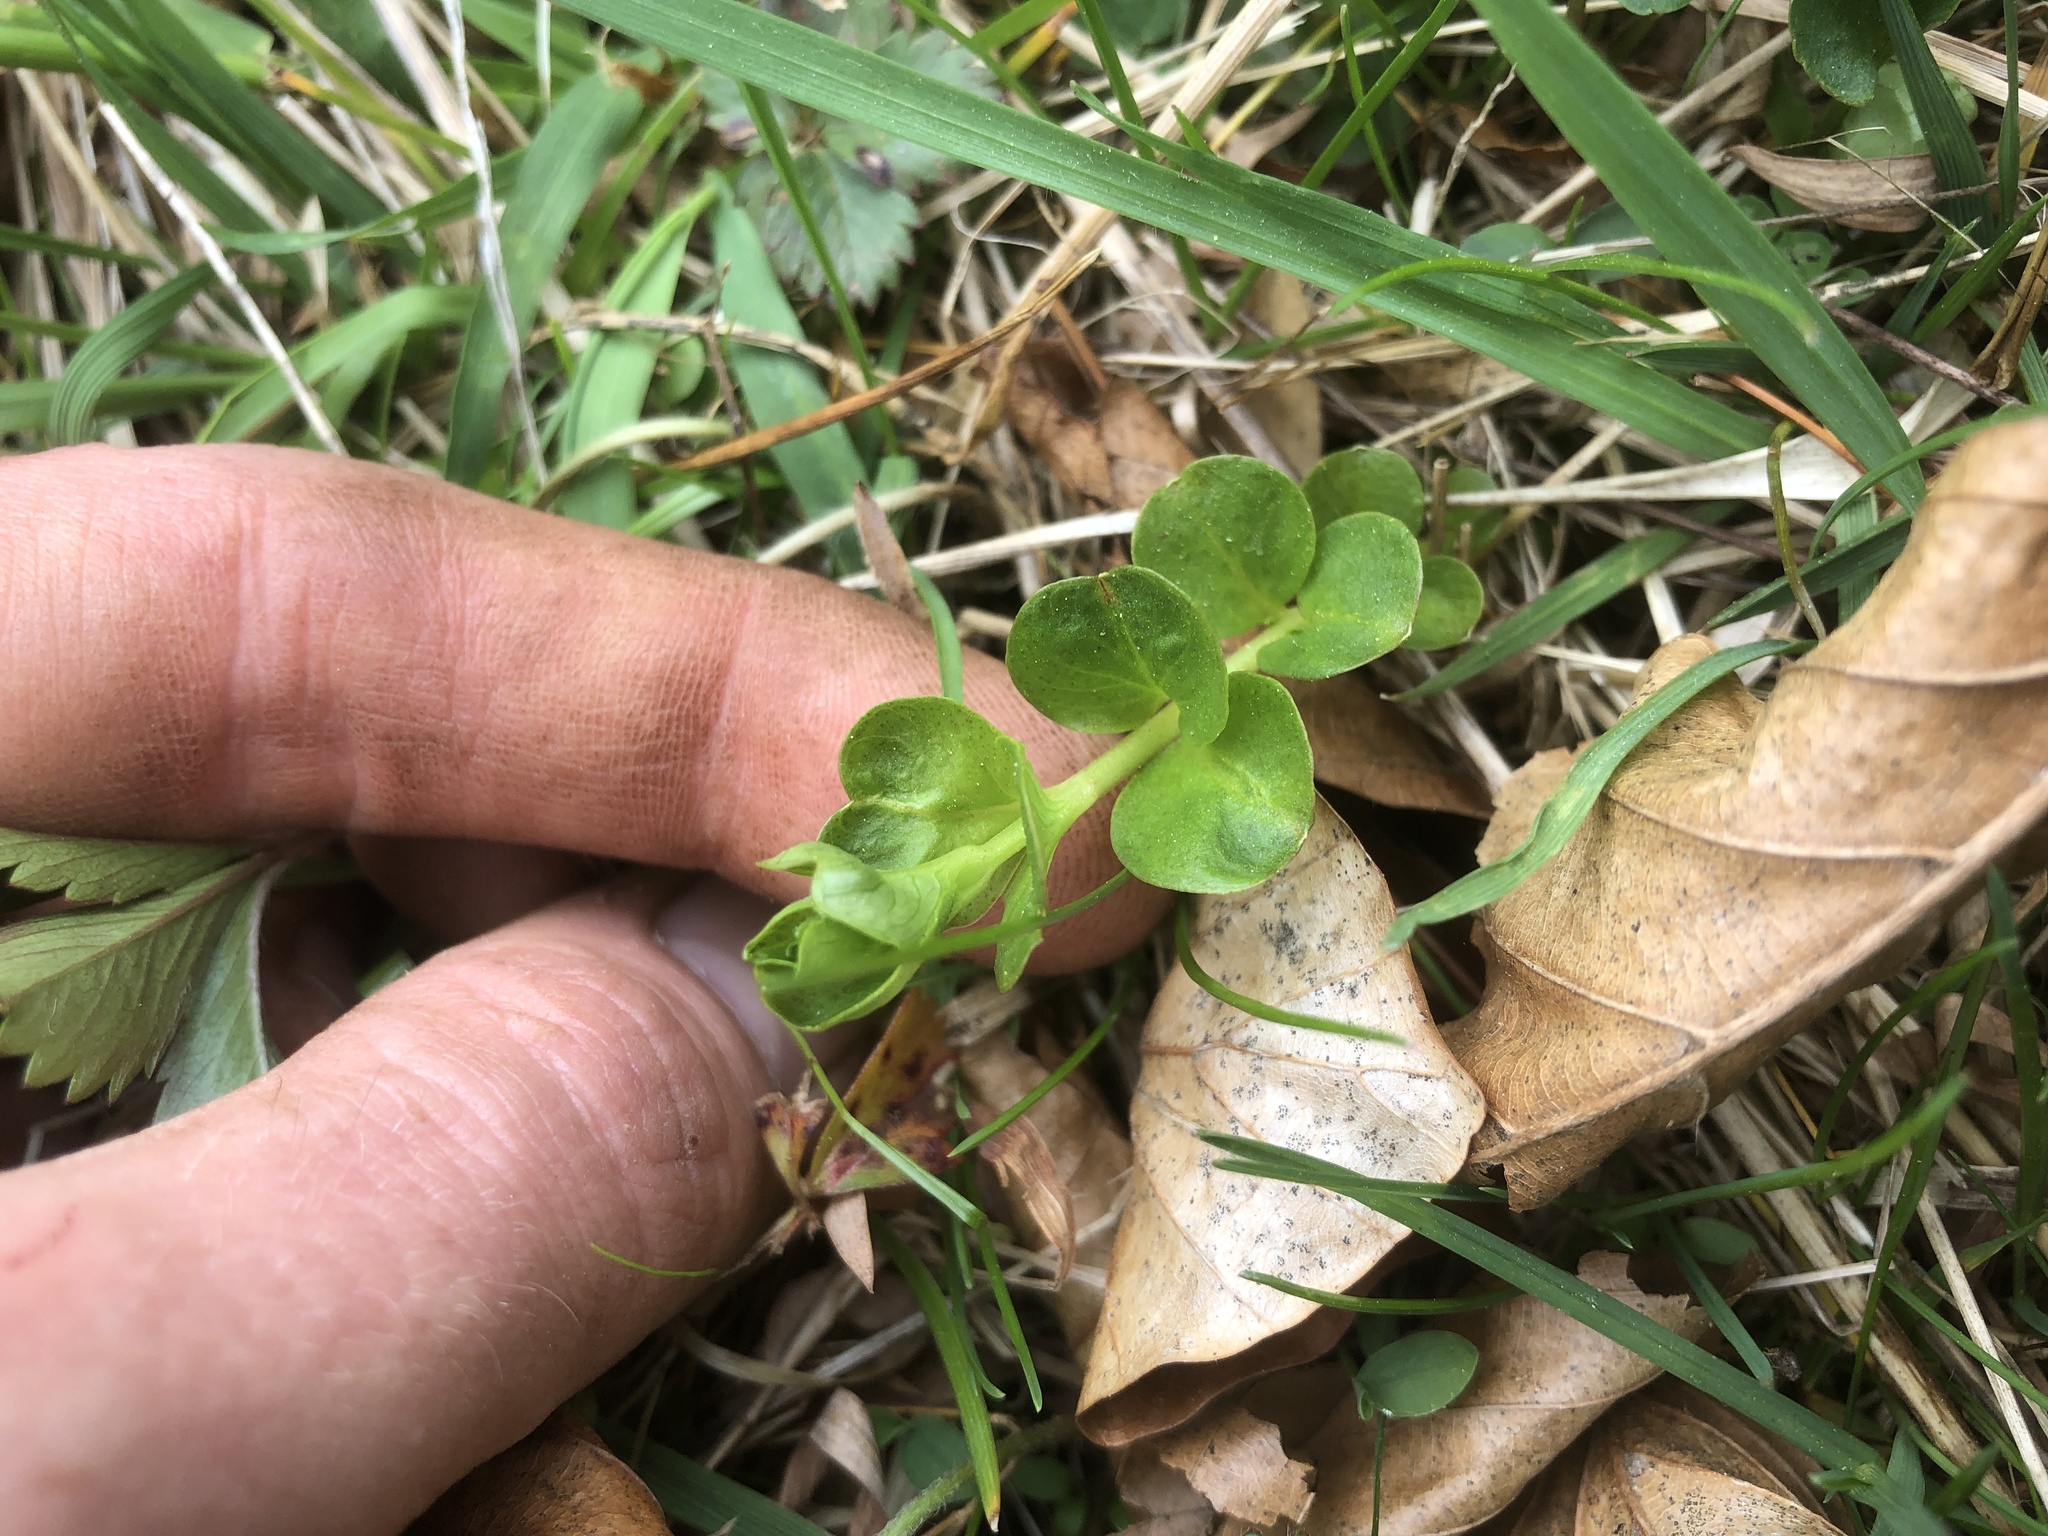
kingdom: Plantae
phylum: Tracheophyta
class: Magnoliopsida
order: Ericales
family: Primulaceae
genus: Lysimachia
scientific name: Lysimachia nummularia
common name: Moneywort
